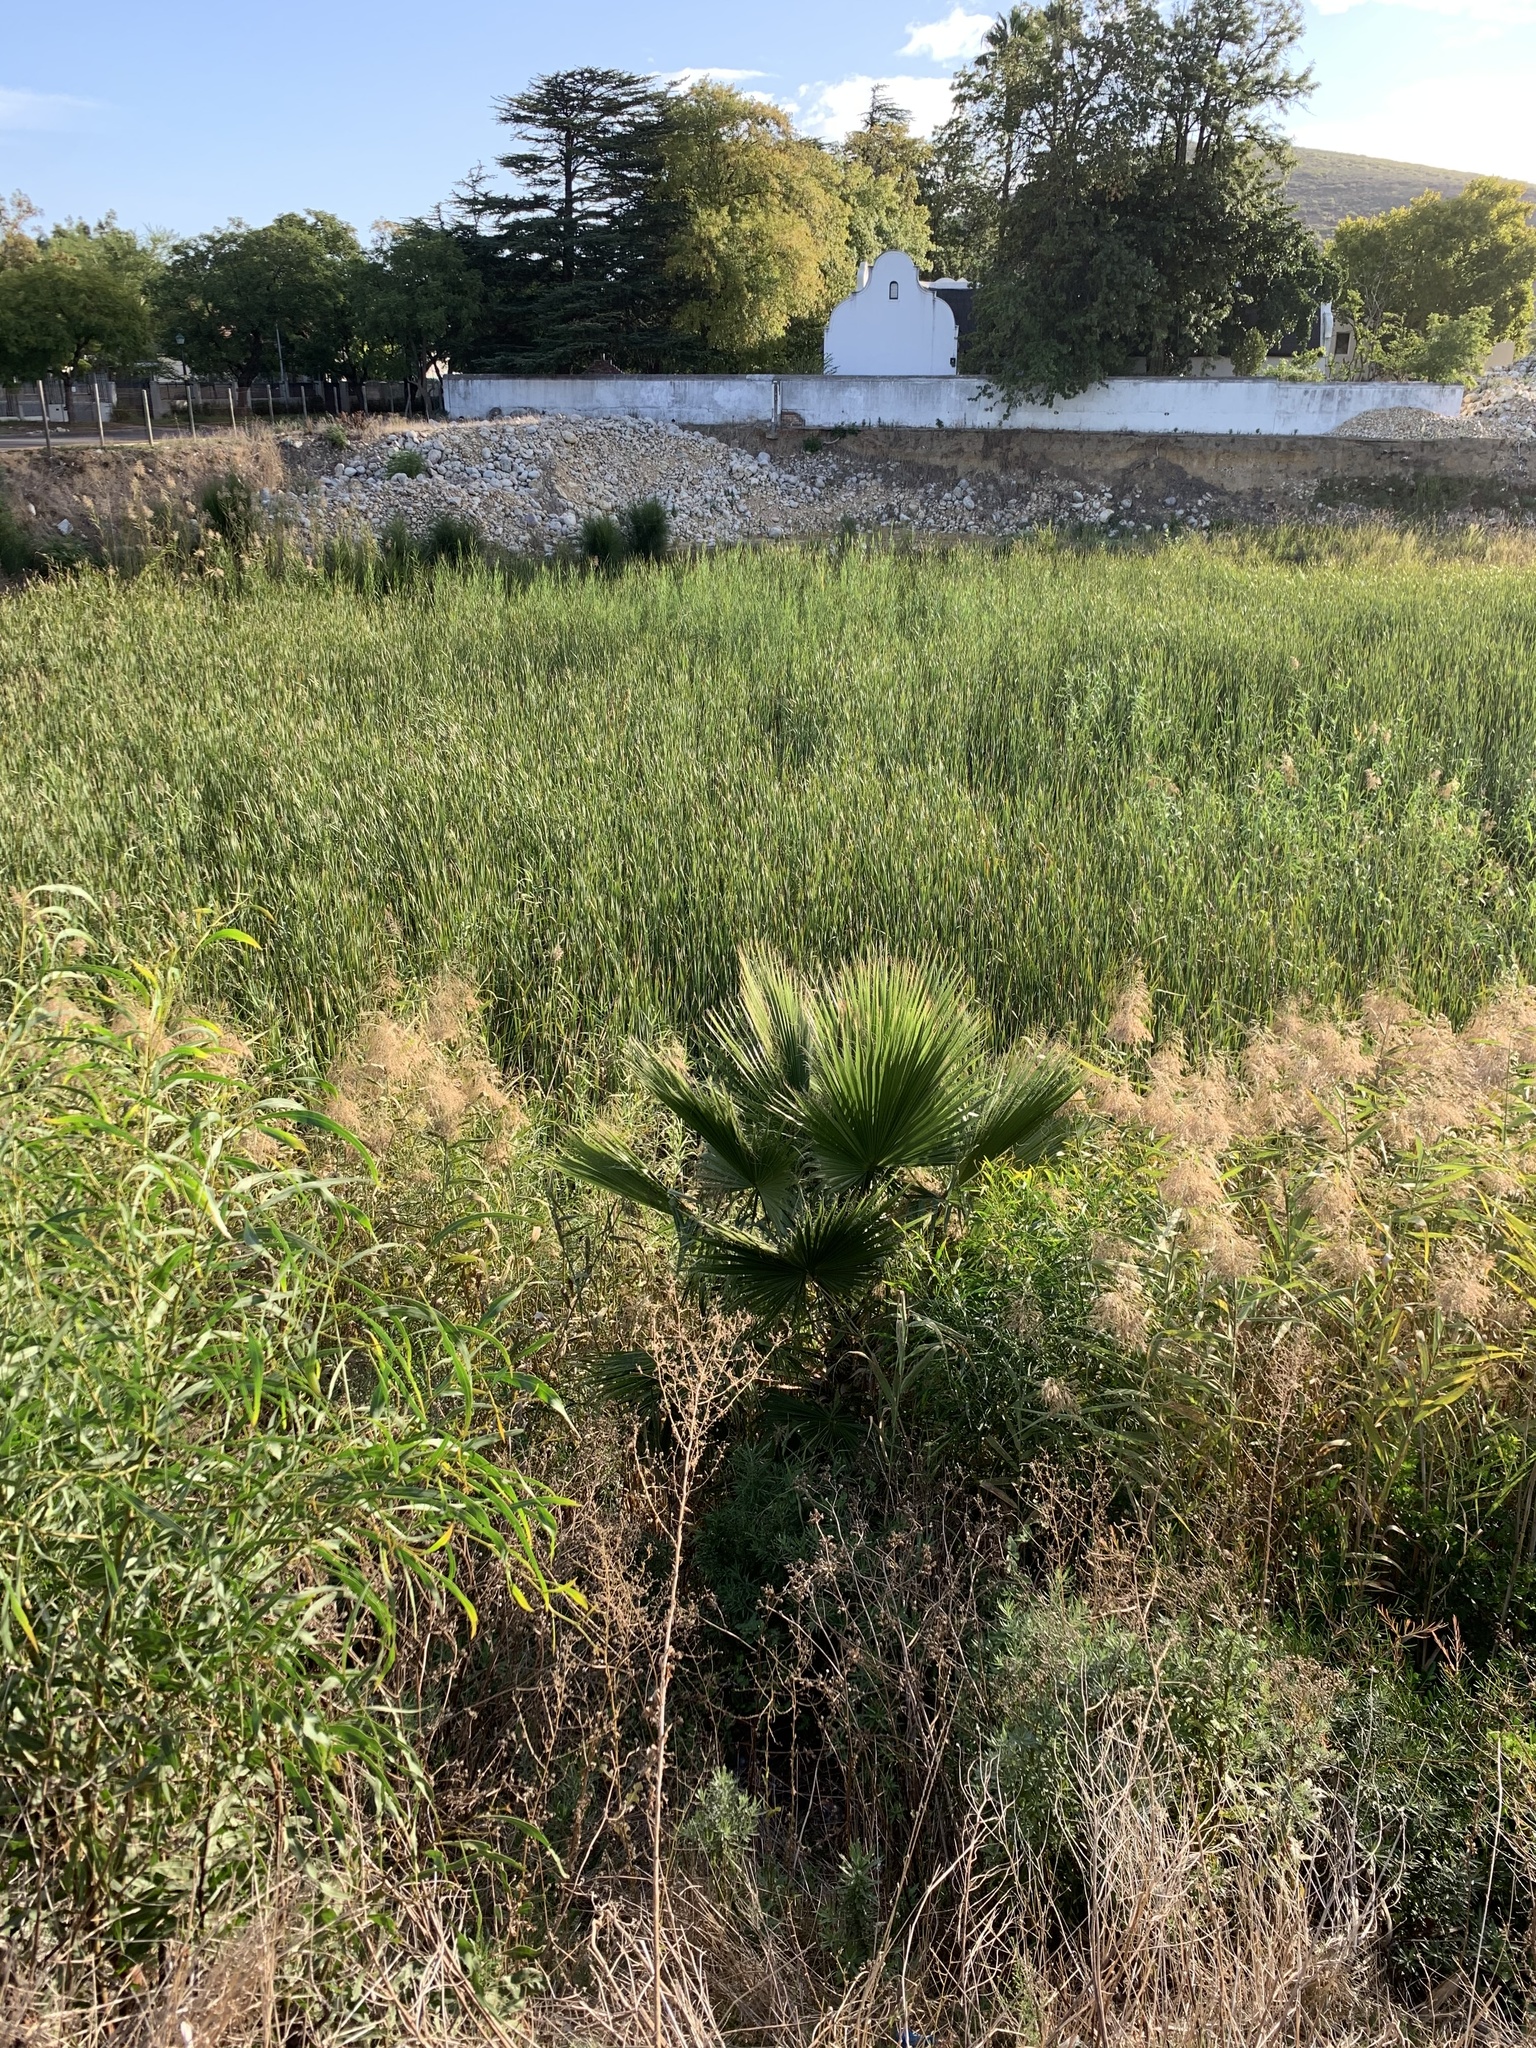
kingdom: Plantae
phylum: Tracheophyta
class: Liliopsida
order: Arecales
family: Arecaceae
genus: Washingtonia
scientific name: Washingtonia robusta
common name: Mexican fan palm
